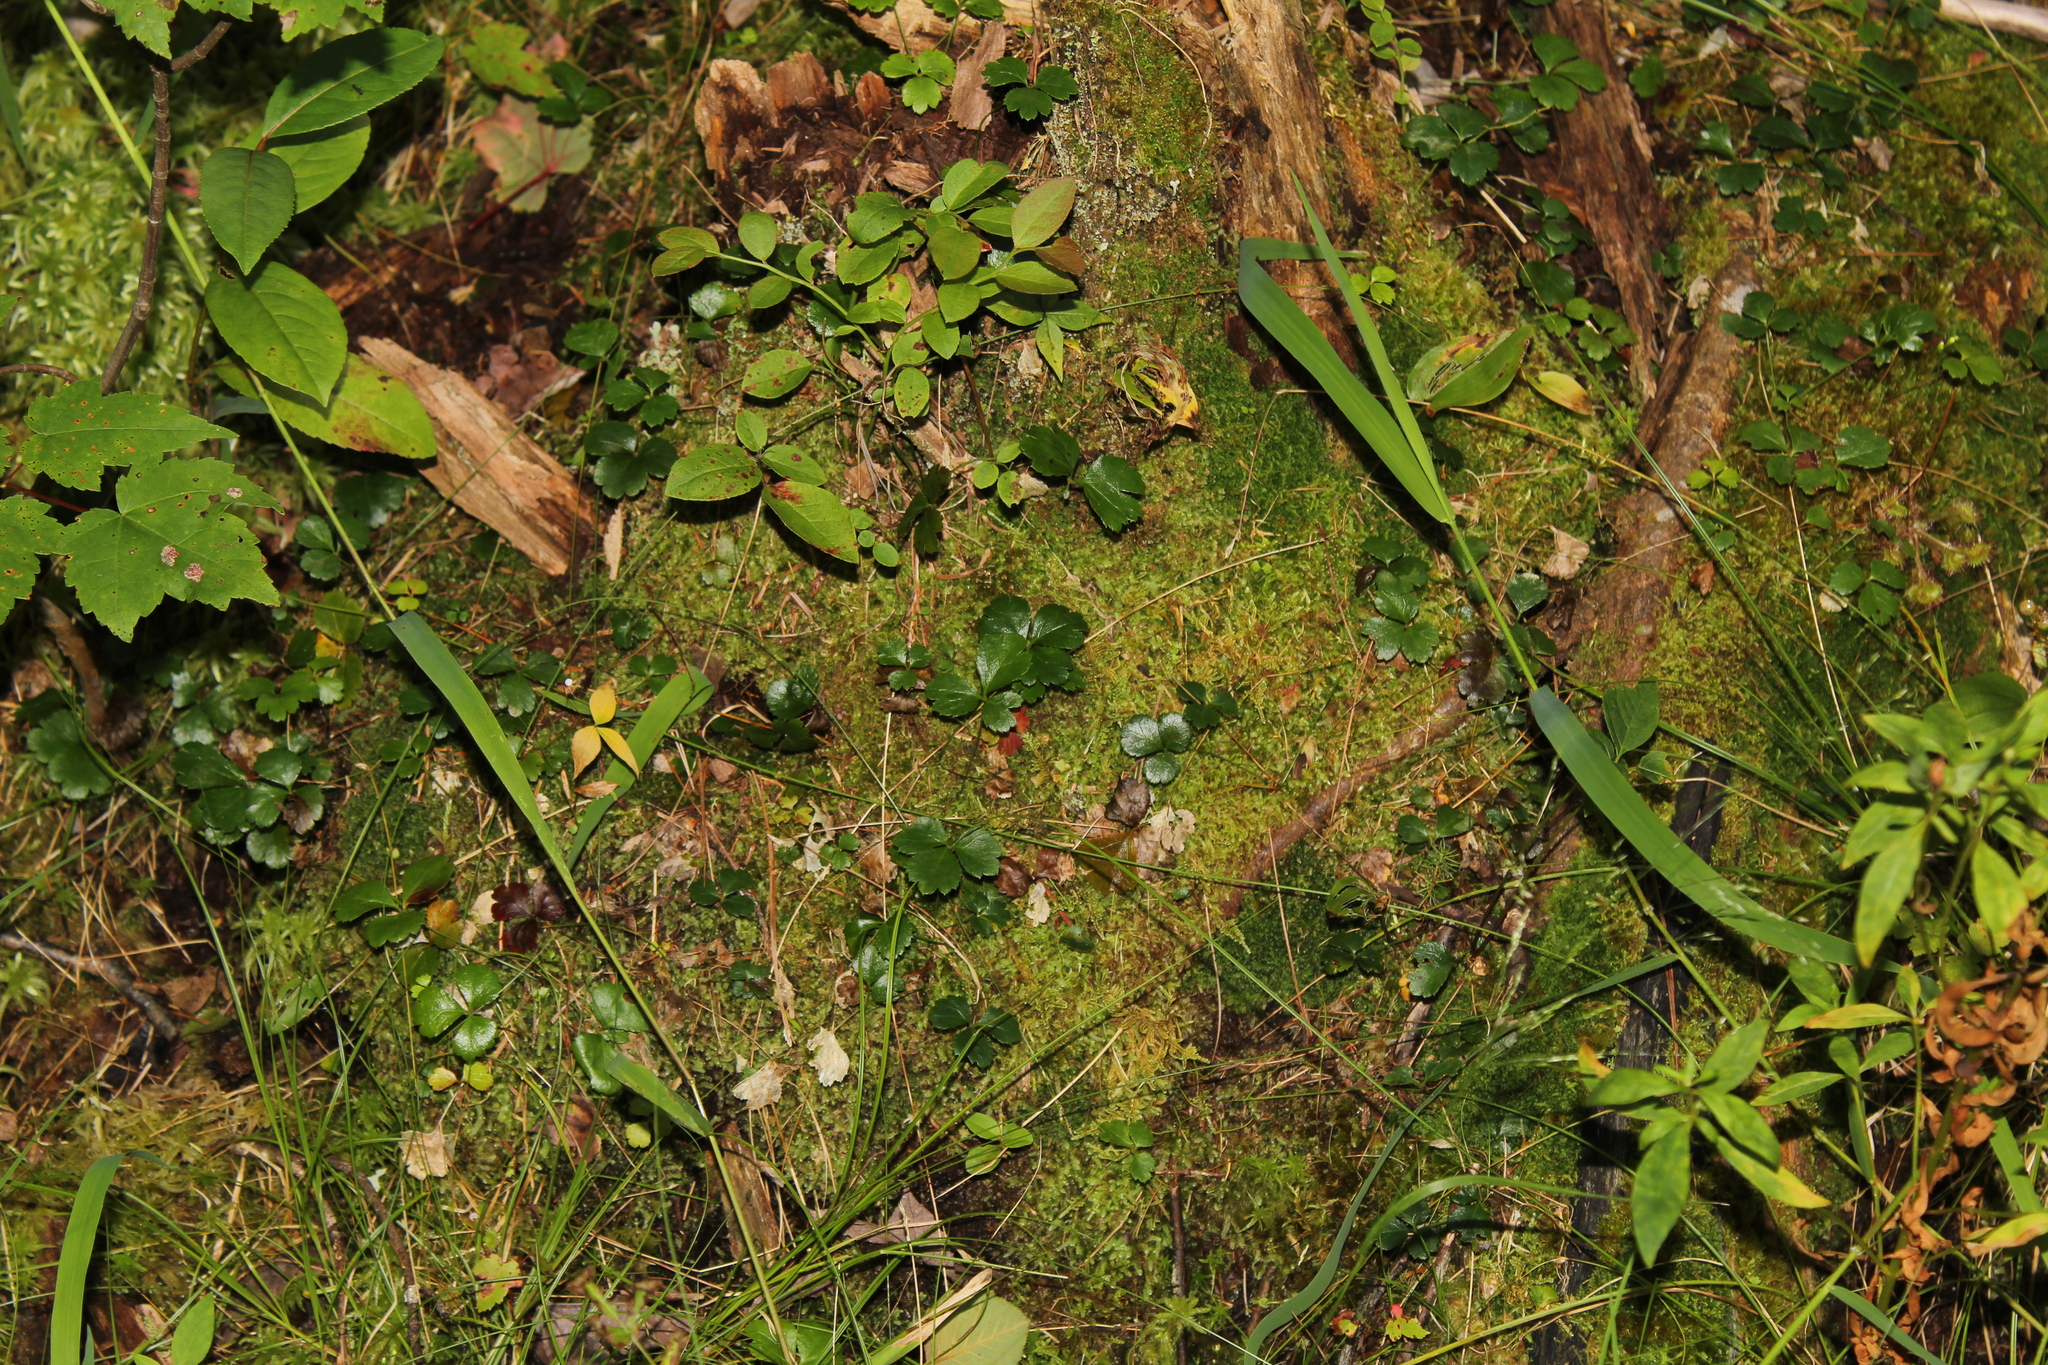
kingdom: Plantae
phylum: Tracheophyta
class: Magnoliopsida
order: Ranunculales
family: Ranunculaceae
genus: Coptis
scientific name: Coptis trifolia
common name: Canker-root
